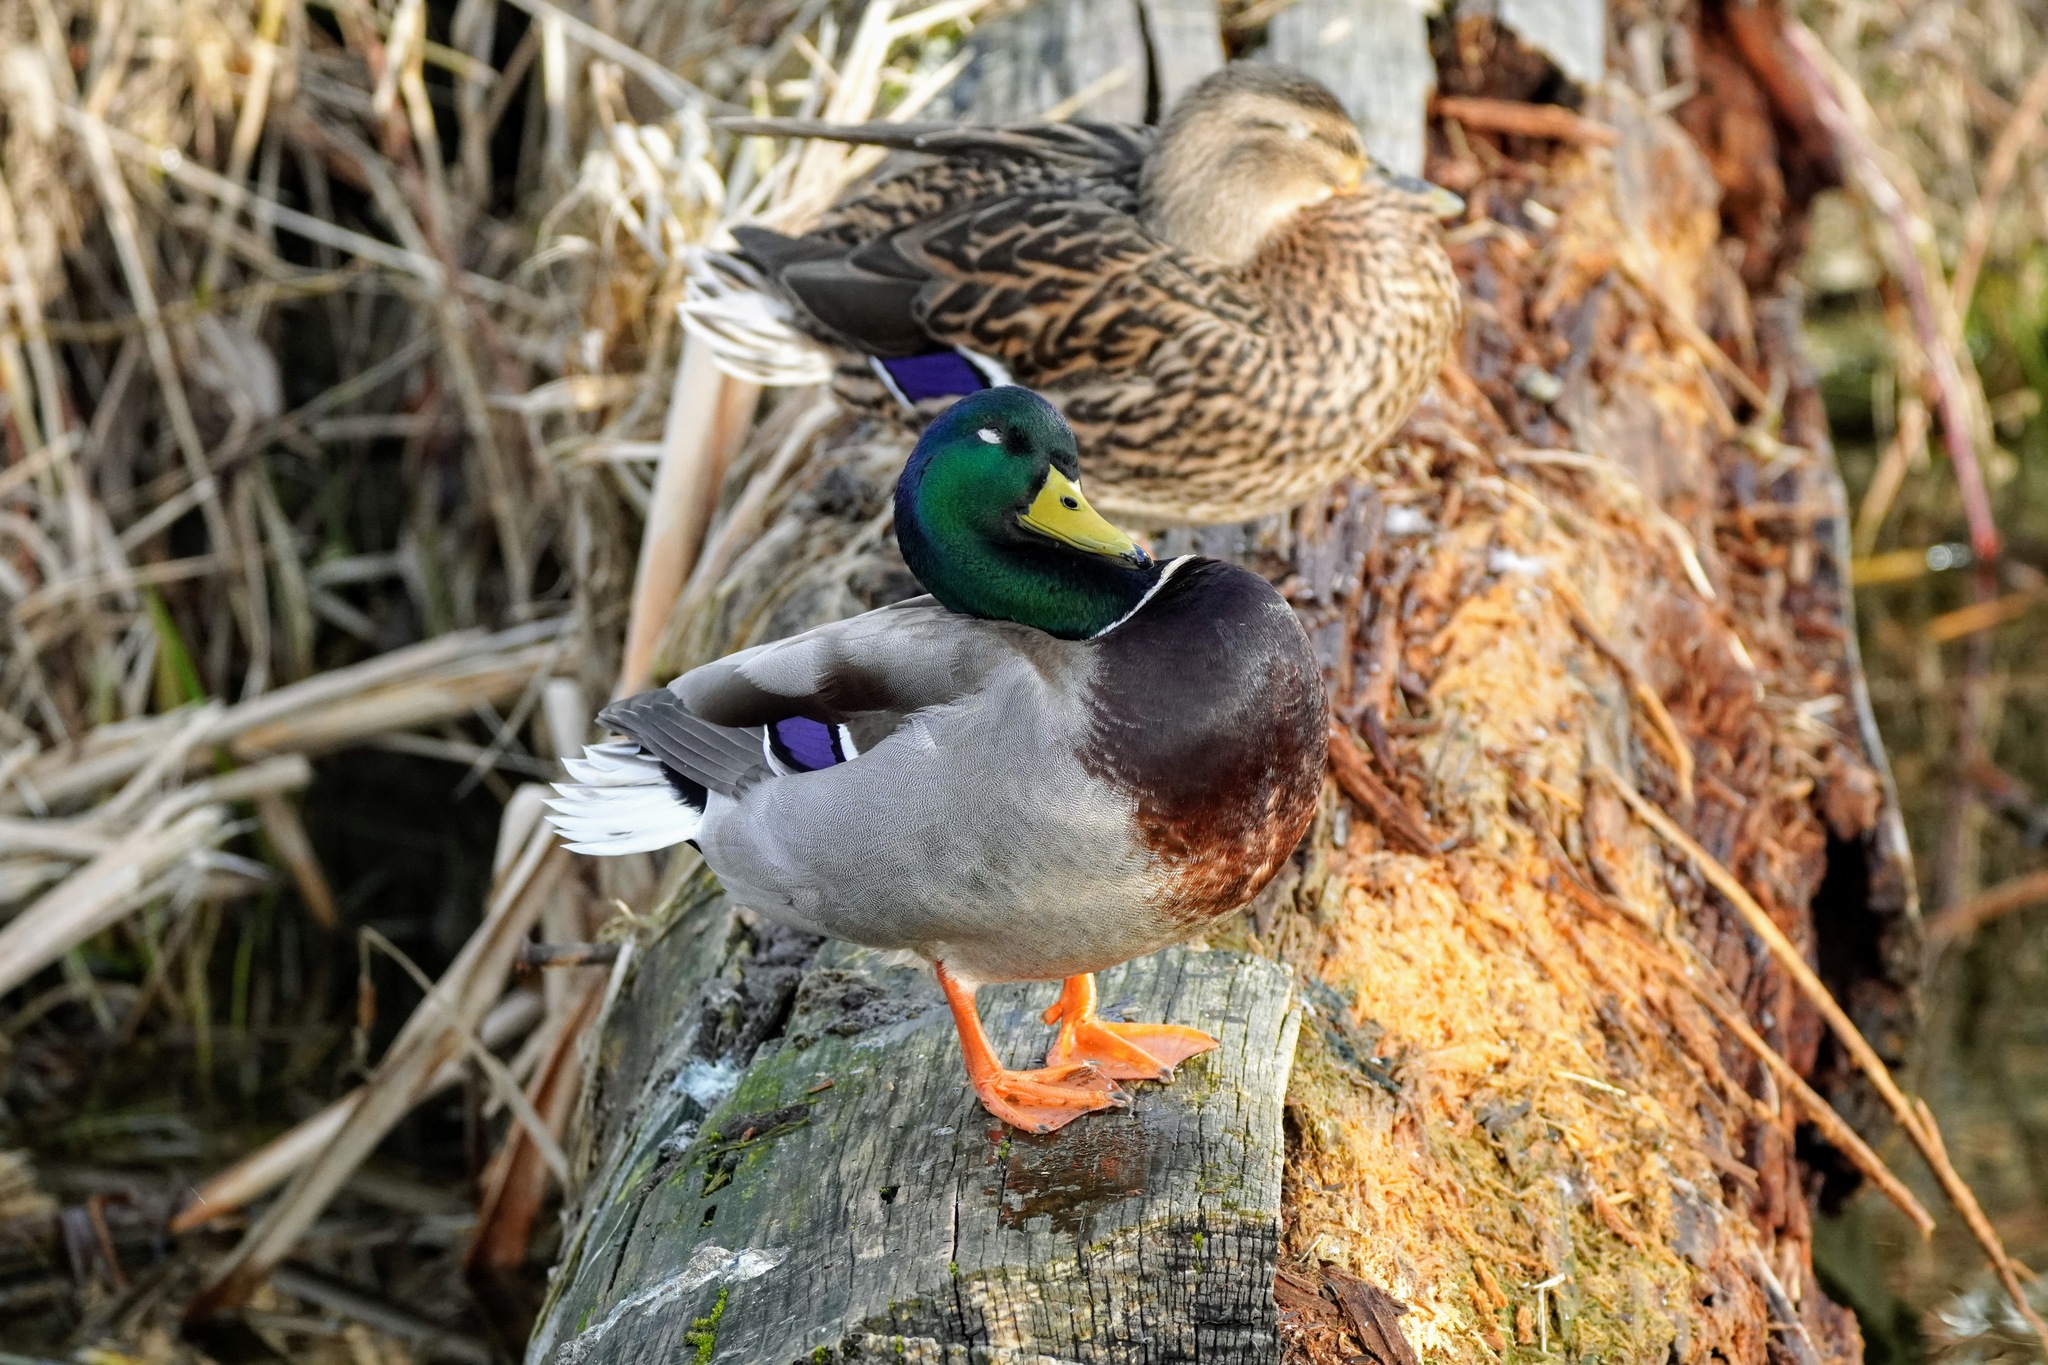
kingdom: Animalia
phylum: Chordata
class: Aves
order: Anseriformes
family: Anatidae
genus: Anas
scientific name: Anas platyrhynchos
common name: Mallard
